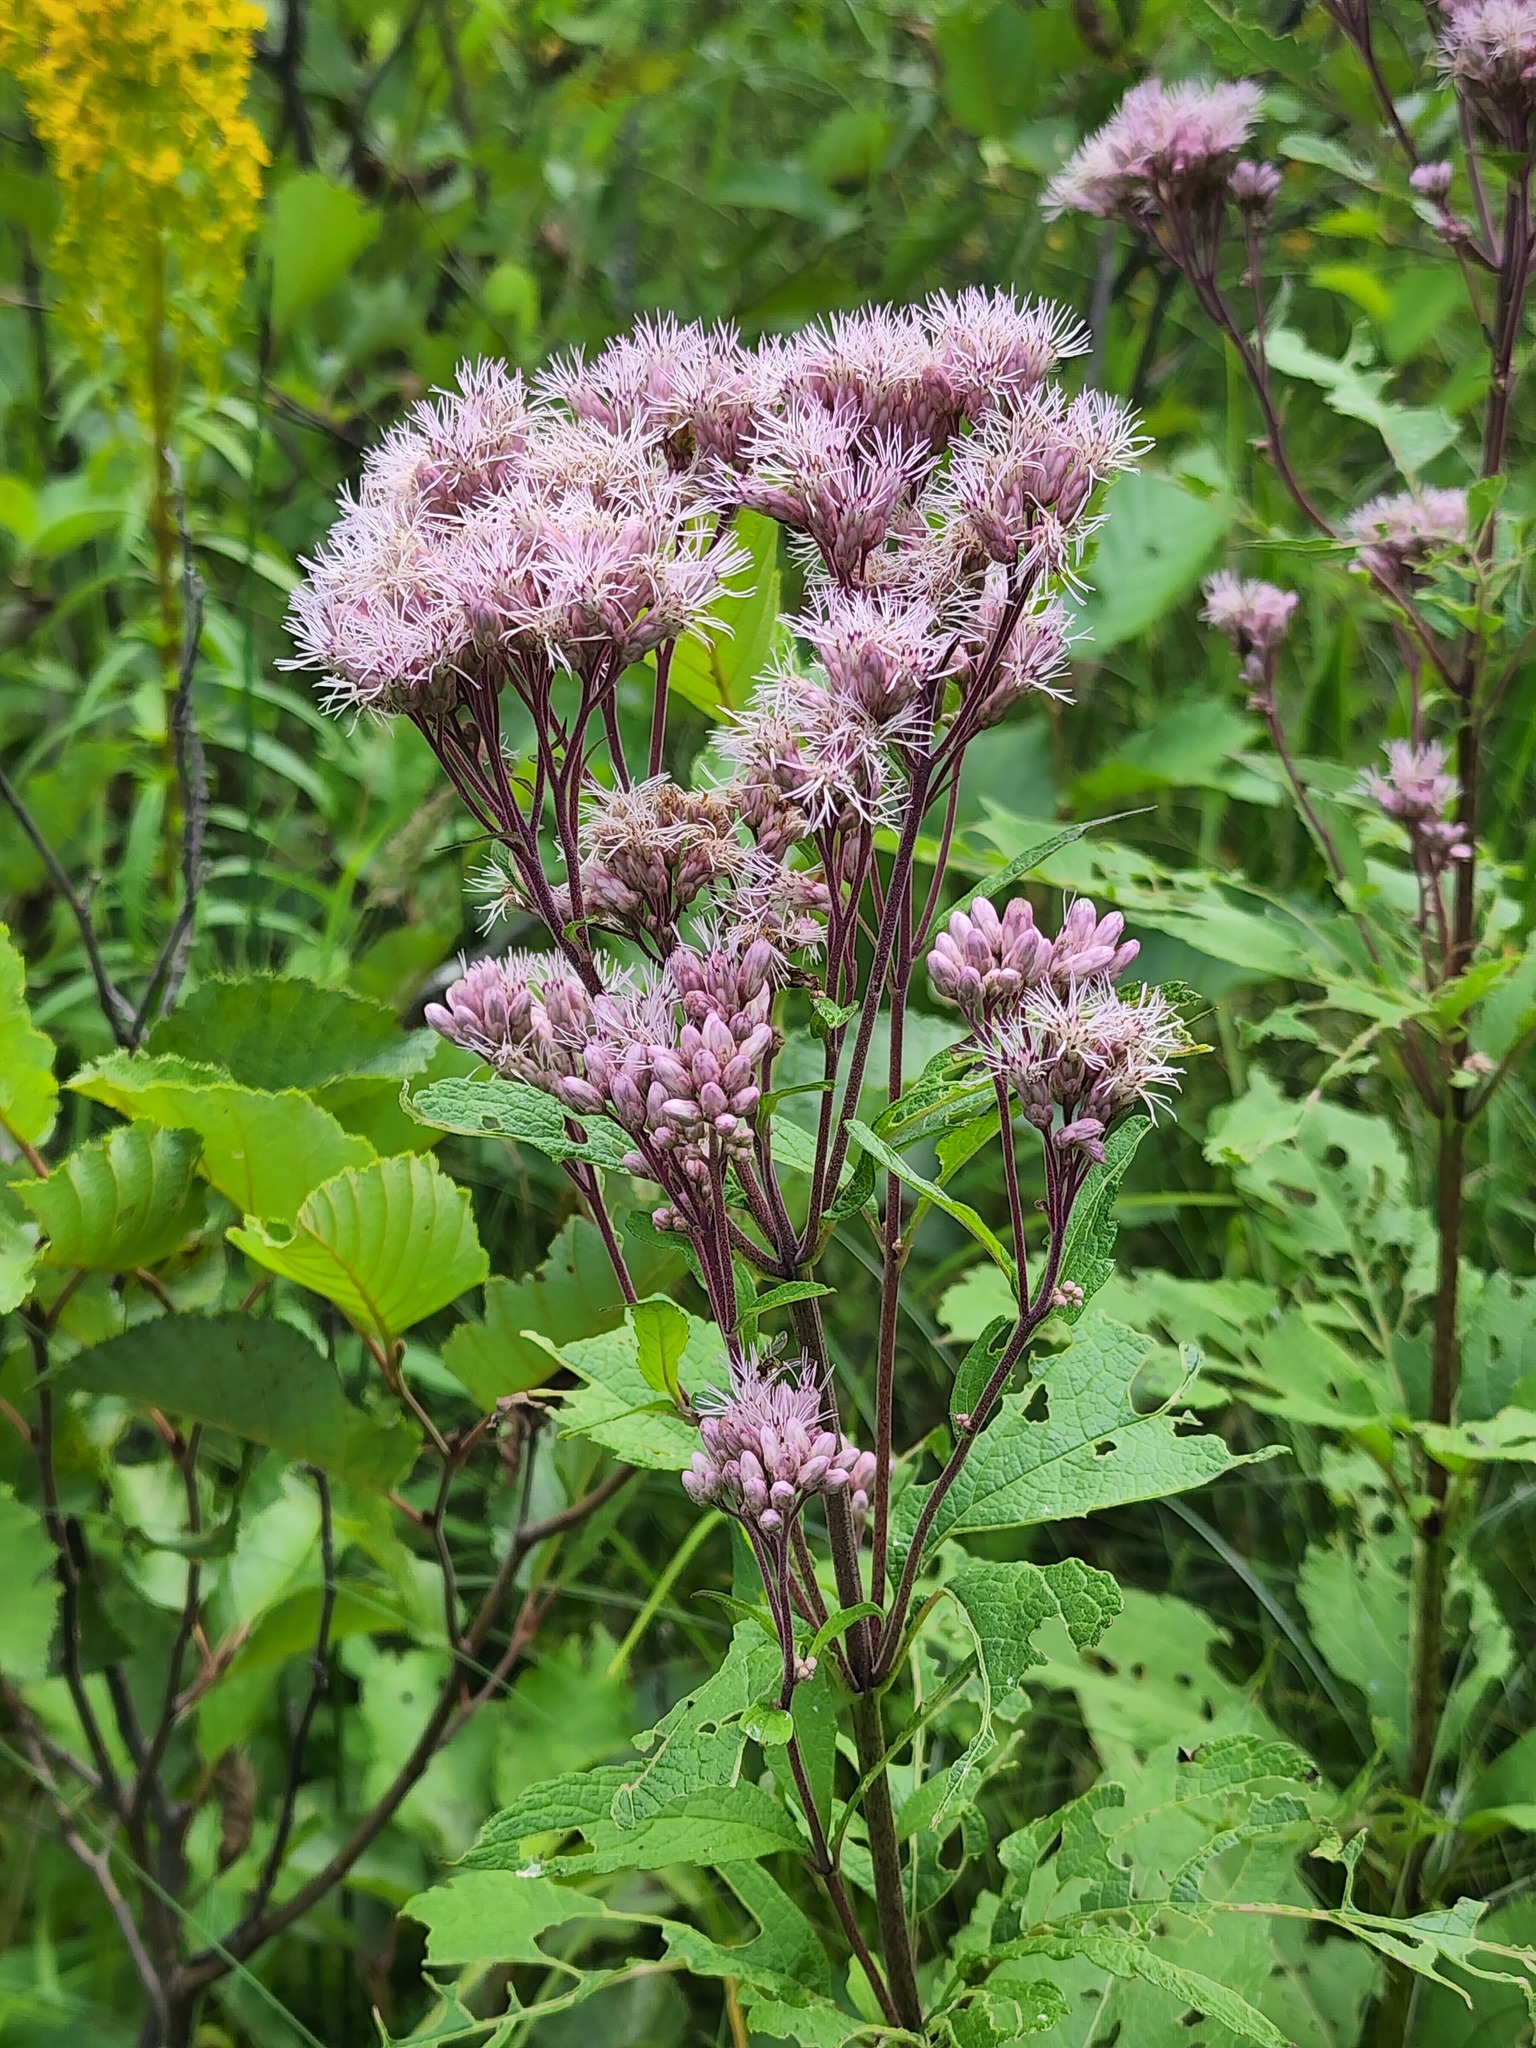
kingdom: Plantae
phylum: Tracheophyta
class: Magnoliopsida
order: Asterales
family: Asteraceae
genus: Eutrochium
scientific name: Eutrochium maculatum
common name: Spotted joe pye weed
